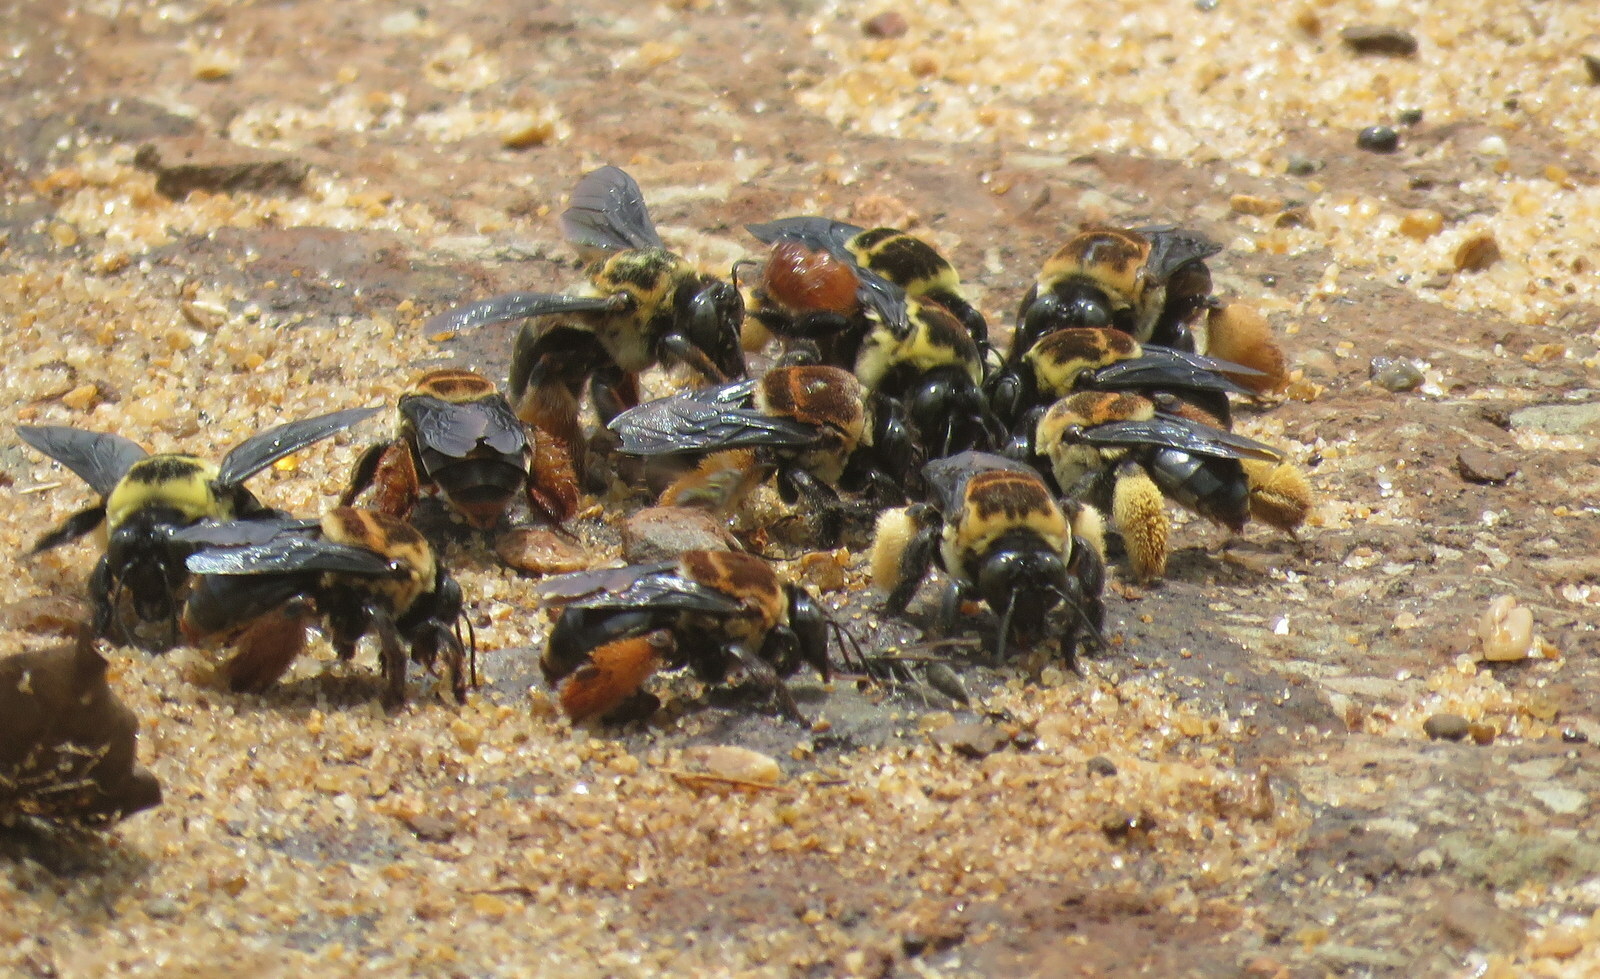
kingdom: Animalia
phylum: Arthropoda
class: Insecta
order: Hymenoptera
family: Apidae
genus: Centris
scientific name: Centris mocsaryi
